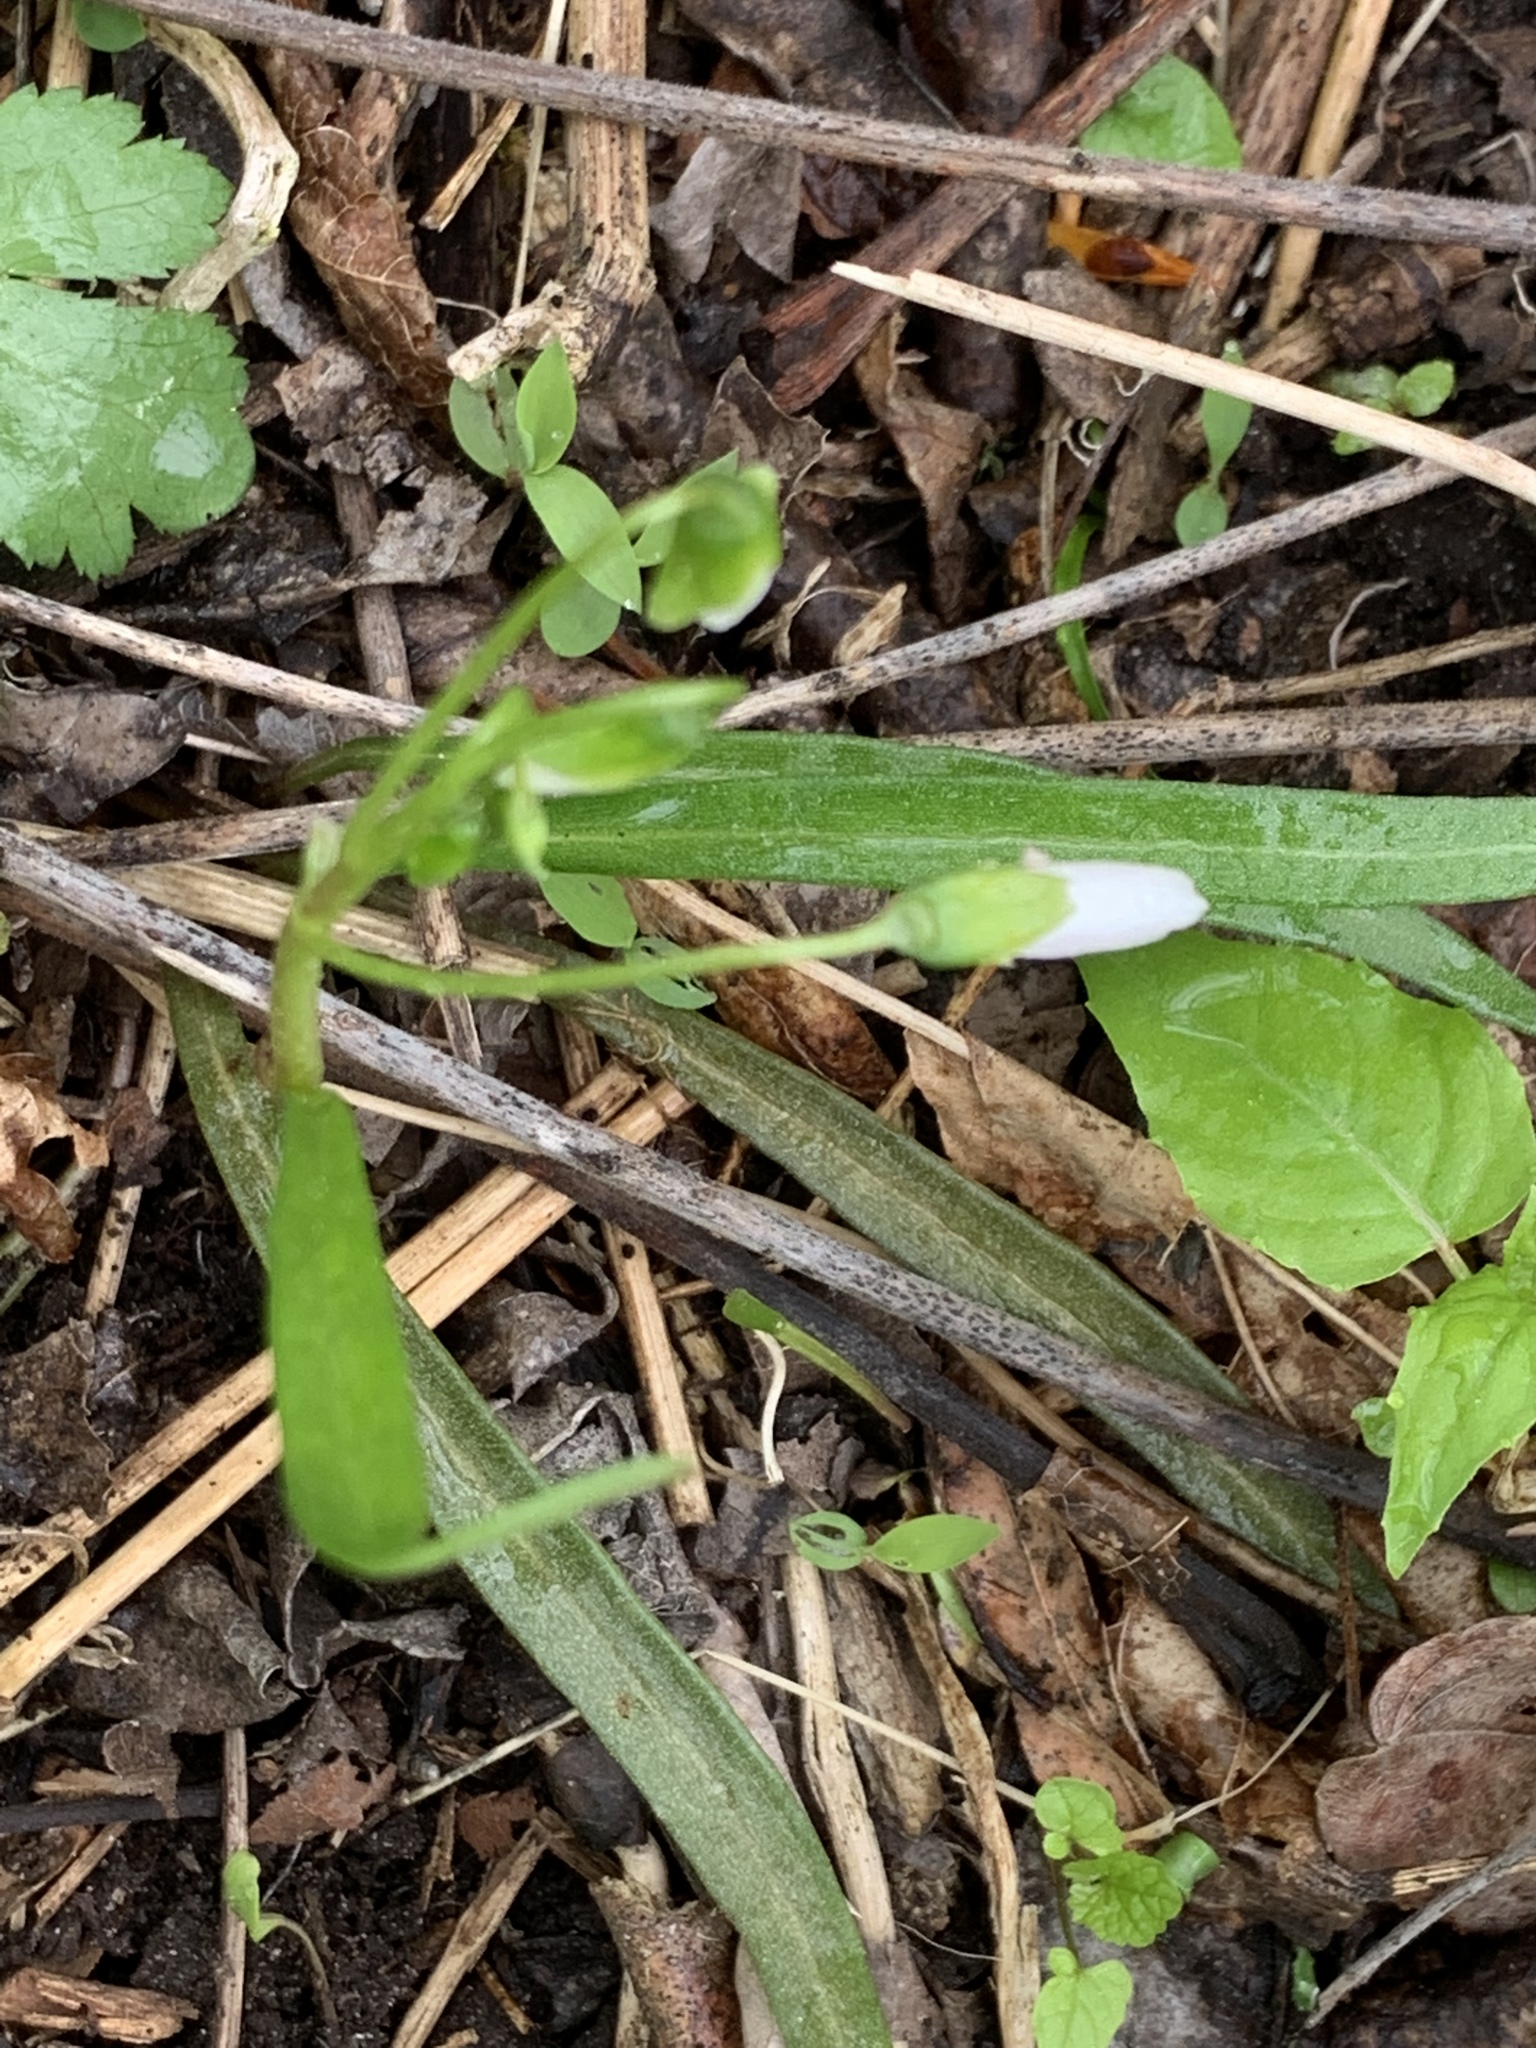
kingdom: Plantae
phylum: Tracheophyta
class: Magnoliopsida
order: Caryophyllales
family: Montiaceae
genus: Claytonia
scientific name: Claytonia virginica
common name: Virginia springbeauty
